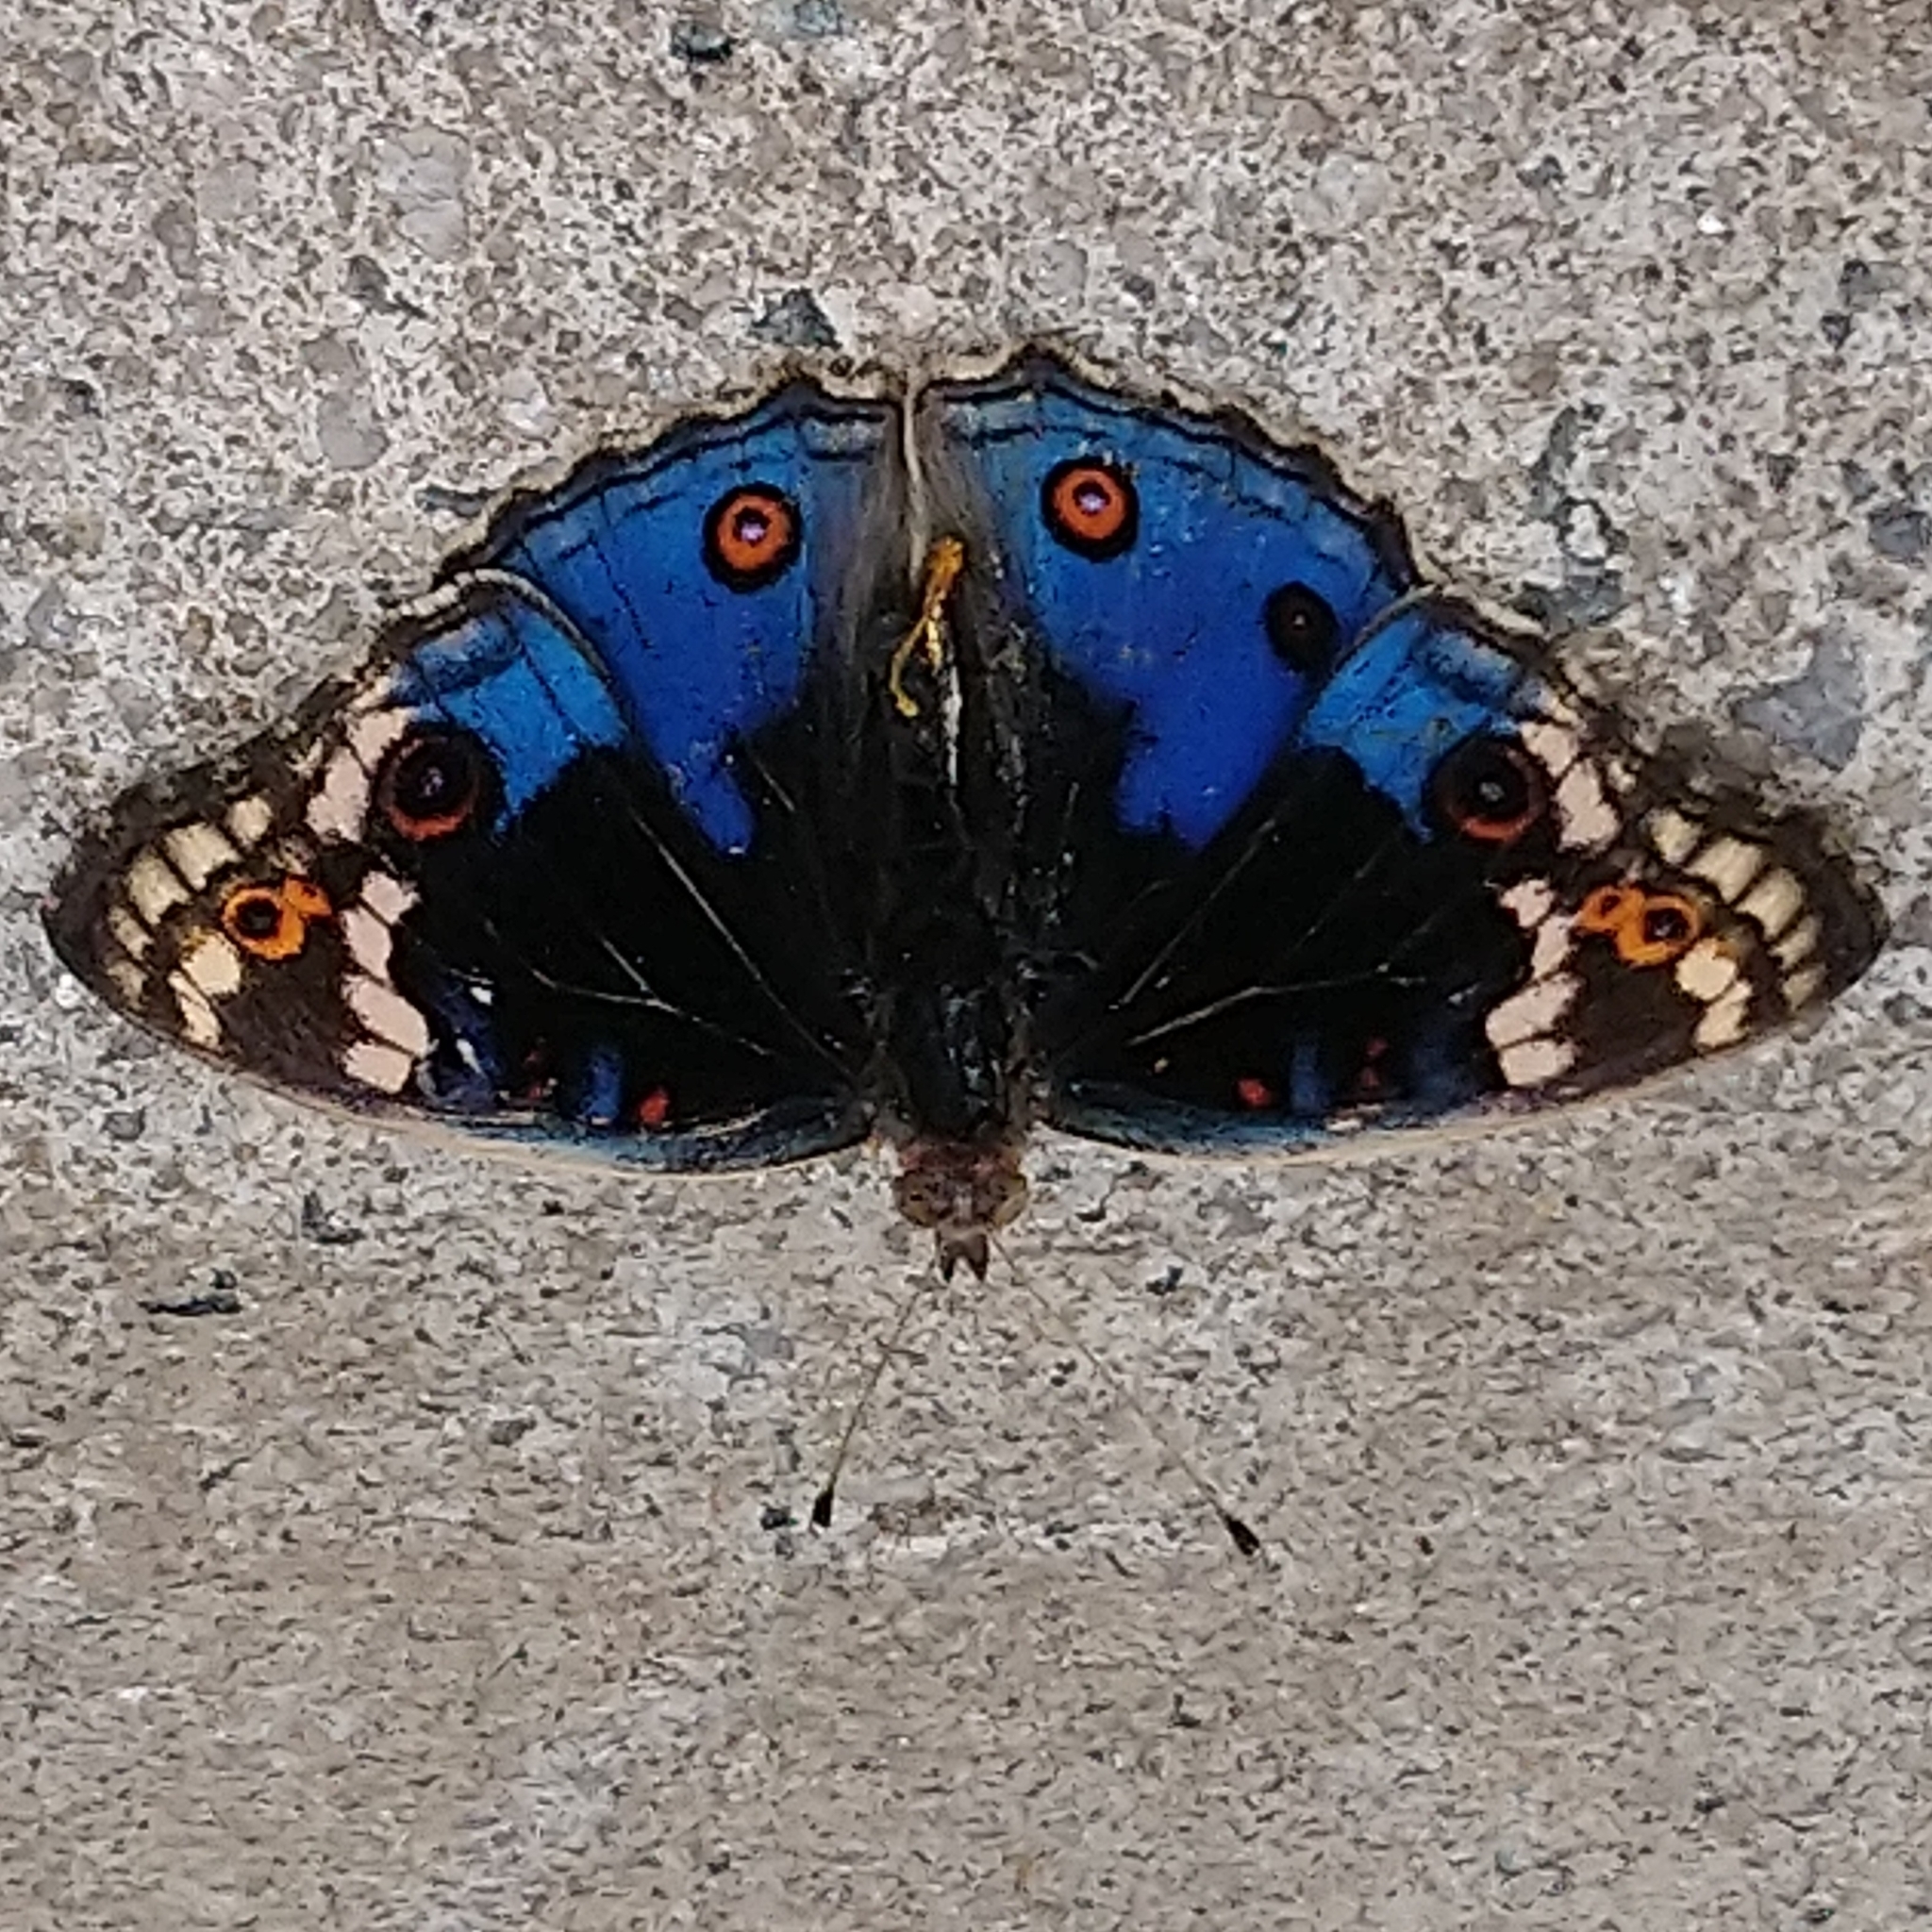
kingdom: Animalia
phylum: Arthropoda
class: Insecta
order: Lepidoptera
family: Nymphalidae
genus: Junonia
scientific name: Junonia orithya
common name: Blue pansy
